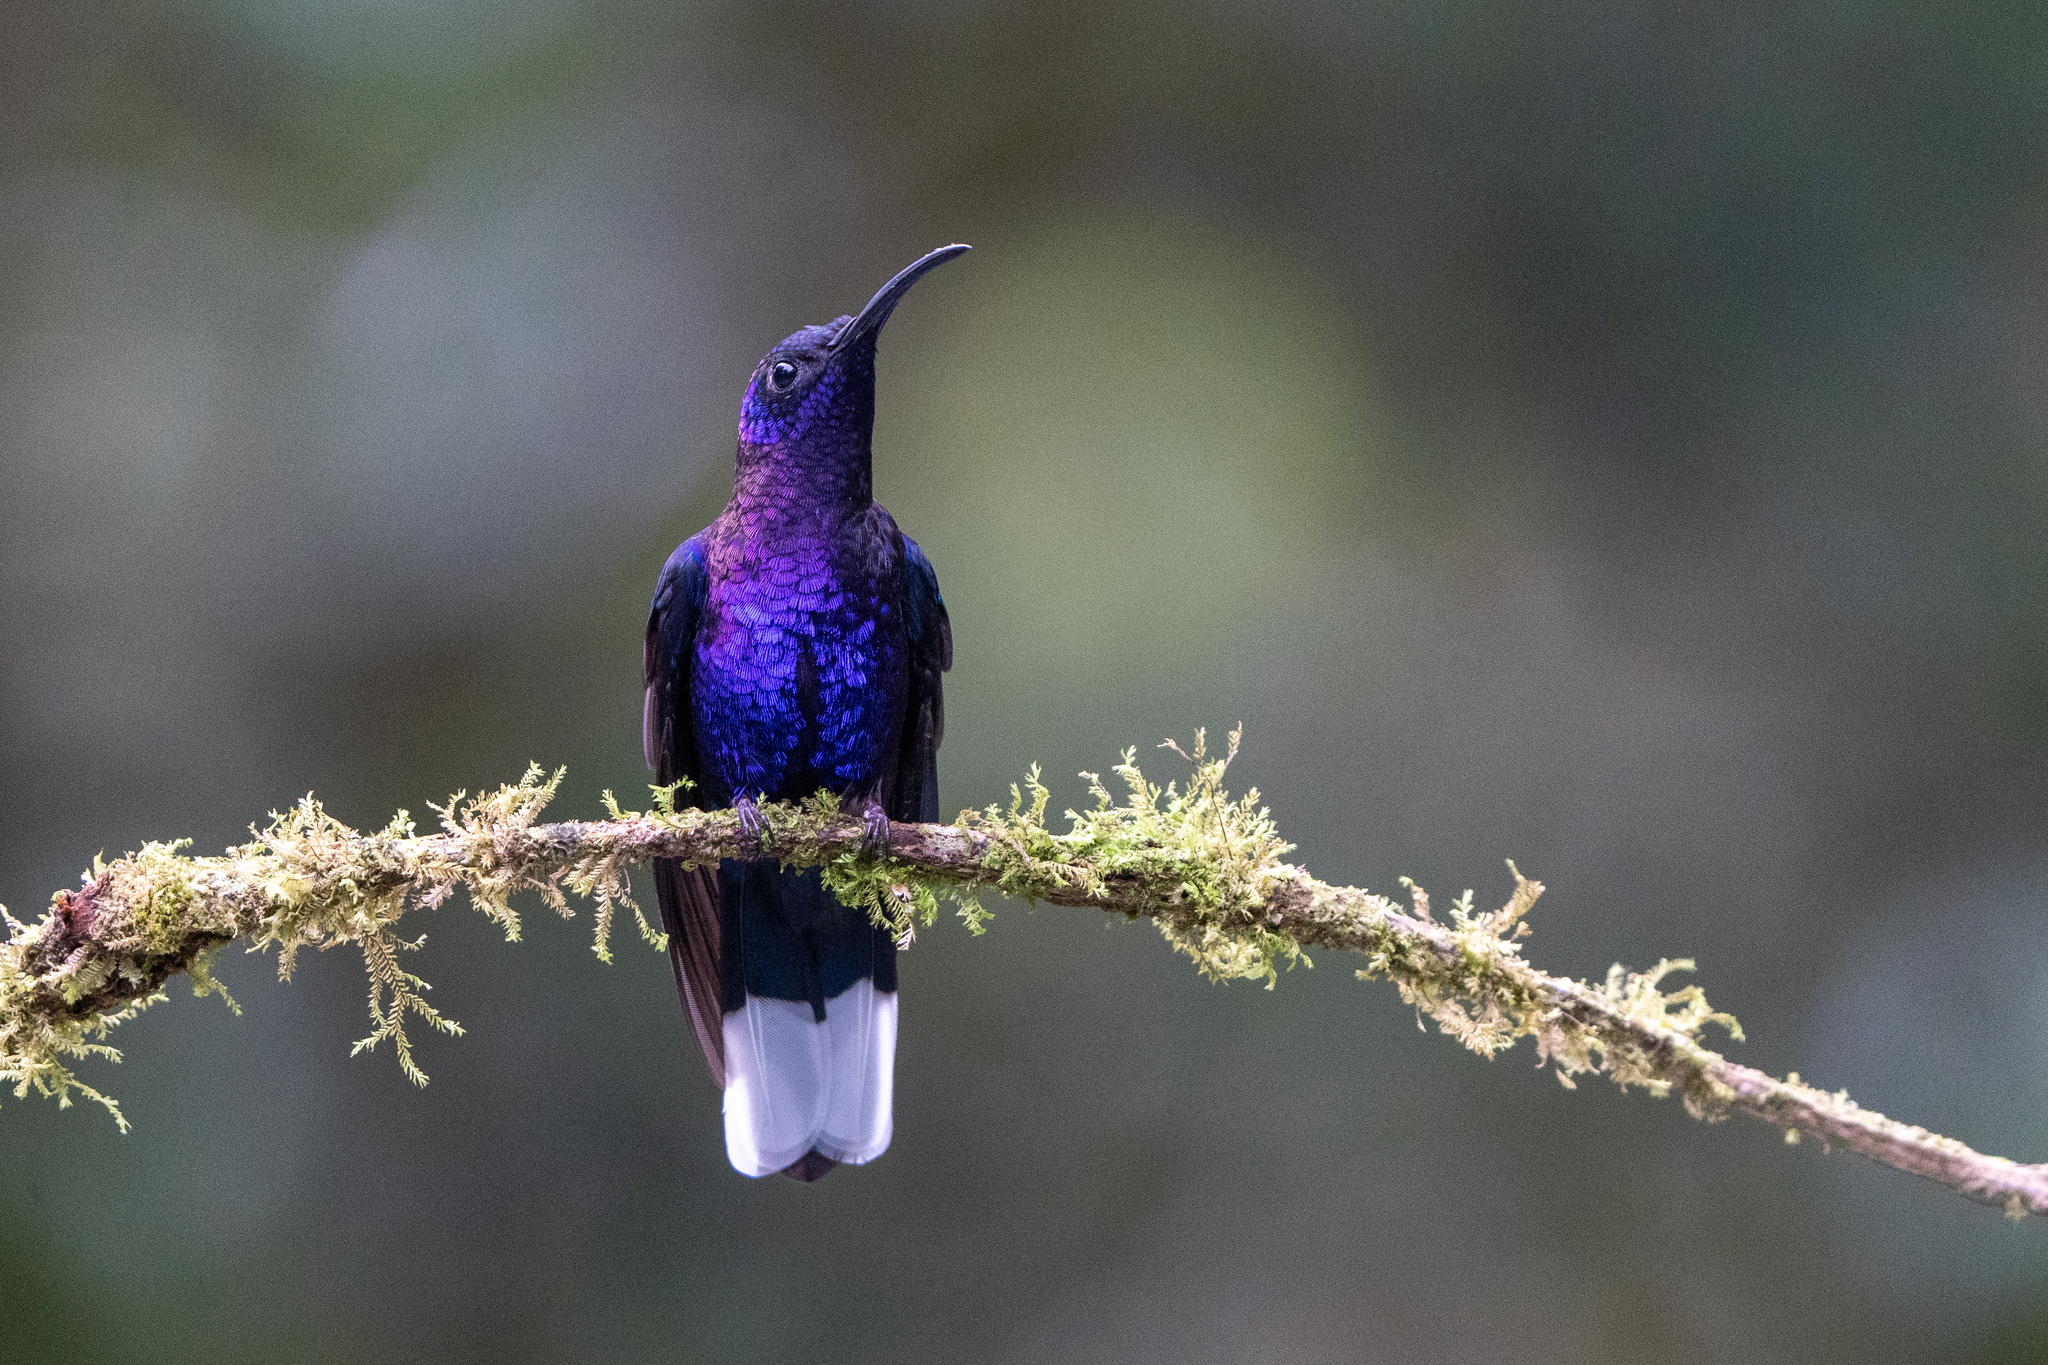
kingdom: Animalia
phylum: Chordata
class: Aves
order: Apodiformes
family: Trochilidae
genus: Campylopterus
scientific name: Campylopterus hemileucurus
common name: Violet sabrewing
